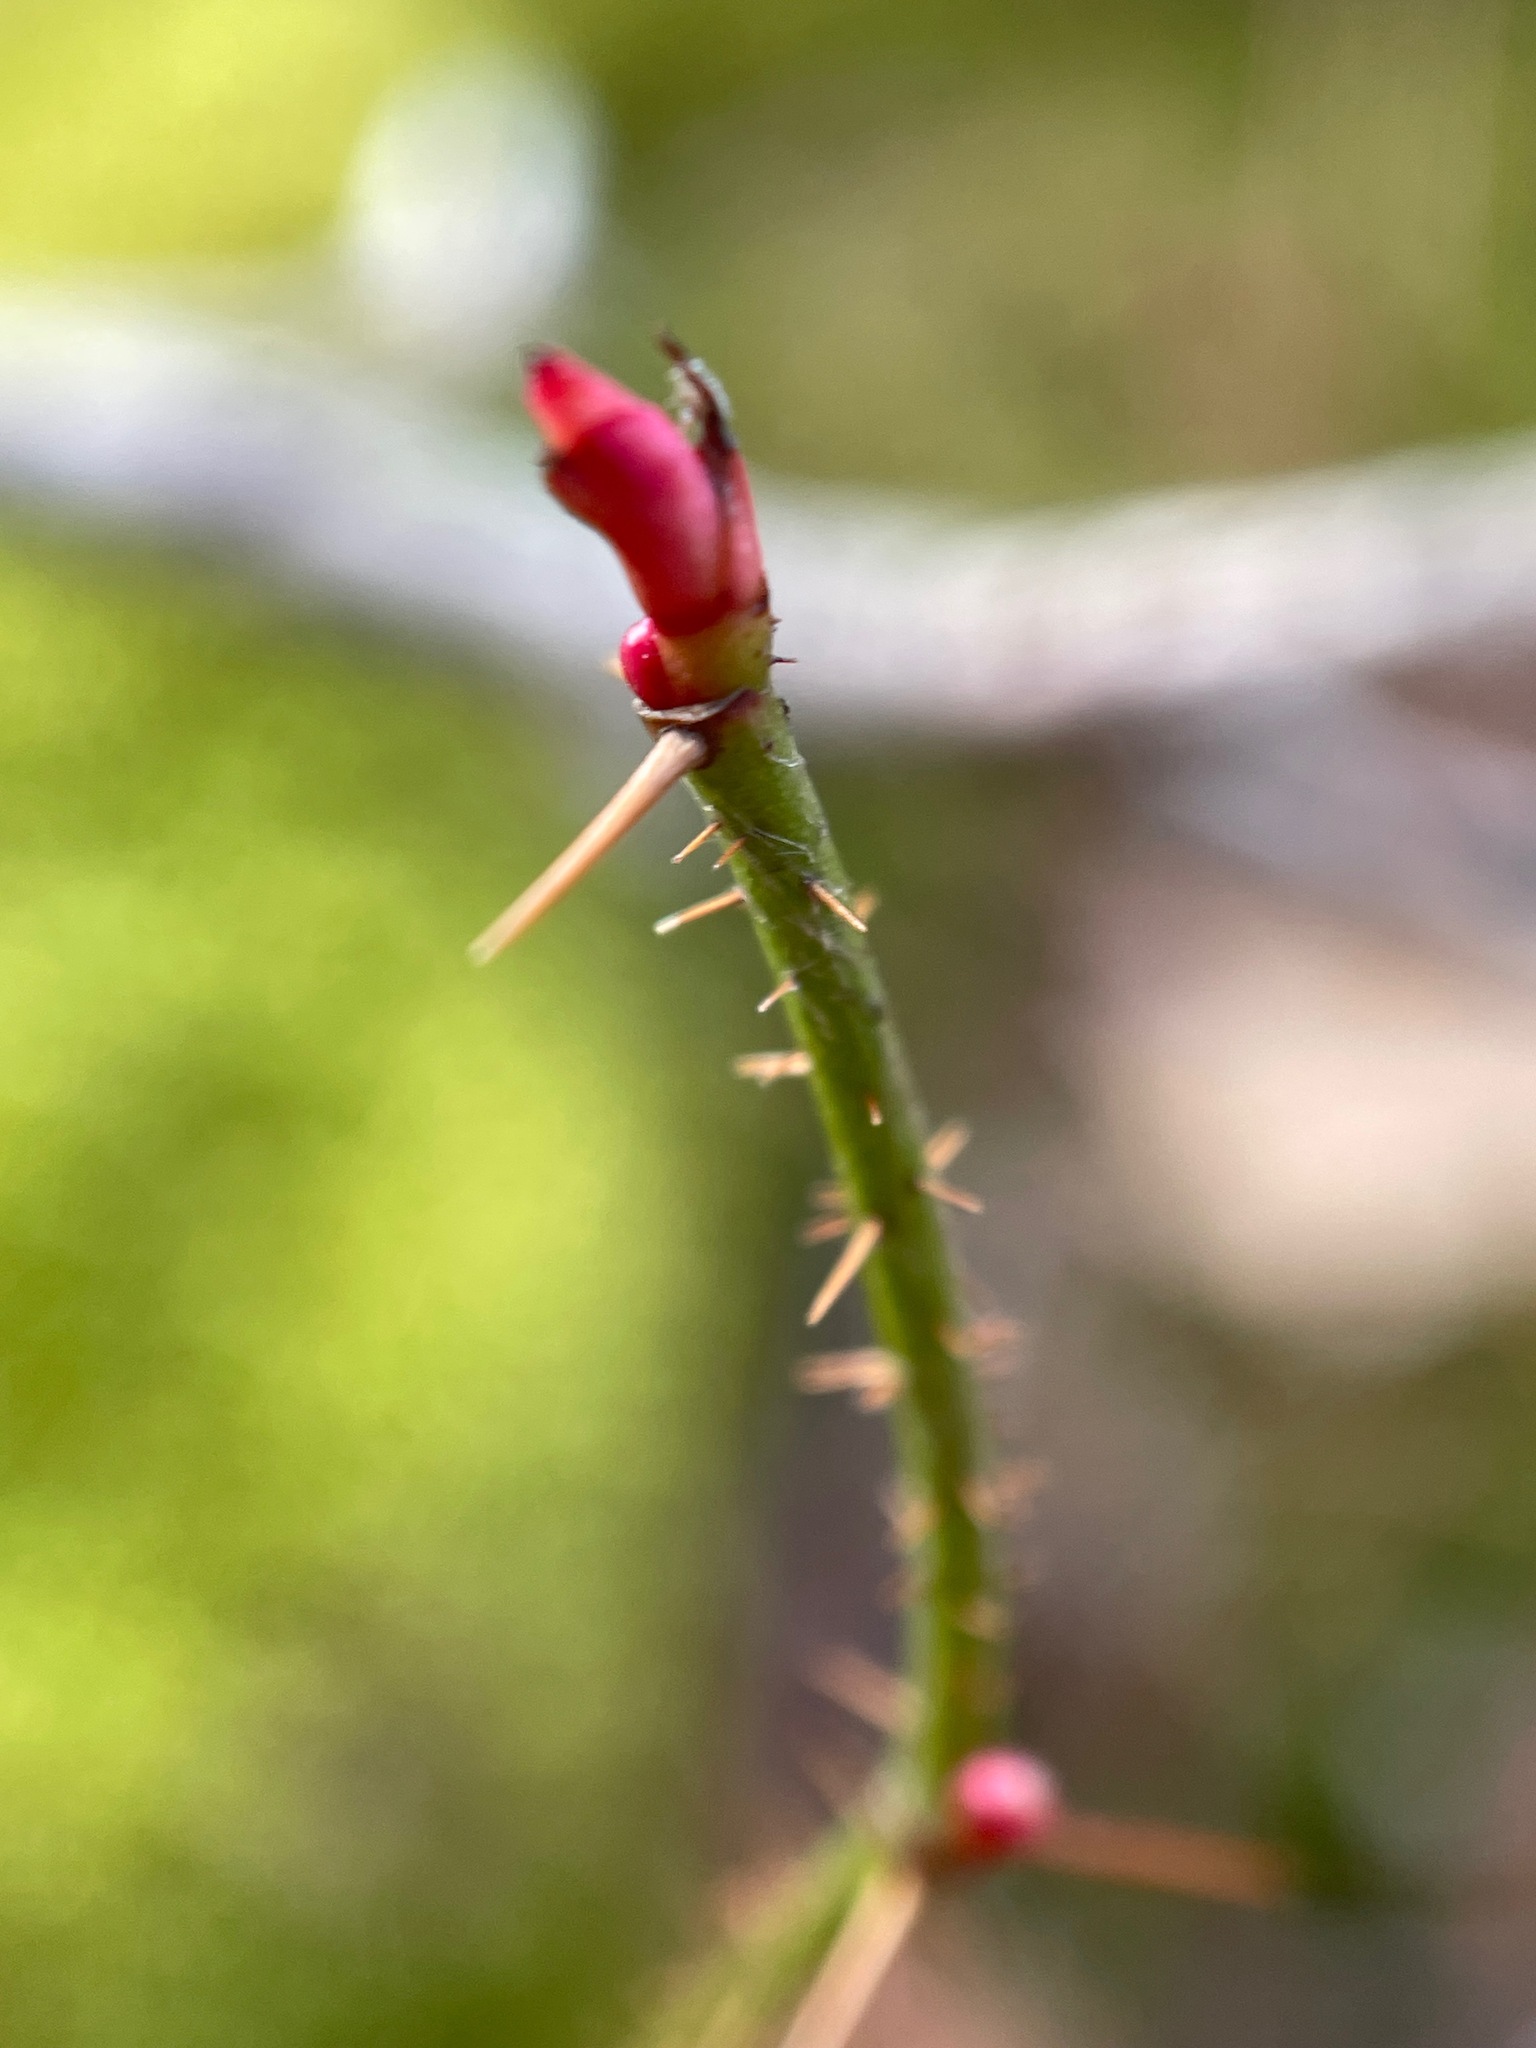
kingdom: Plantae
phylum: Tracheophyta
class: Magnoliopsida
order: Rosales
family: Rosaceae
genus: Rosa
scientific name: Rosa carolina
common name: Pasture rose
